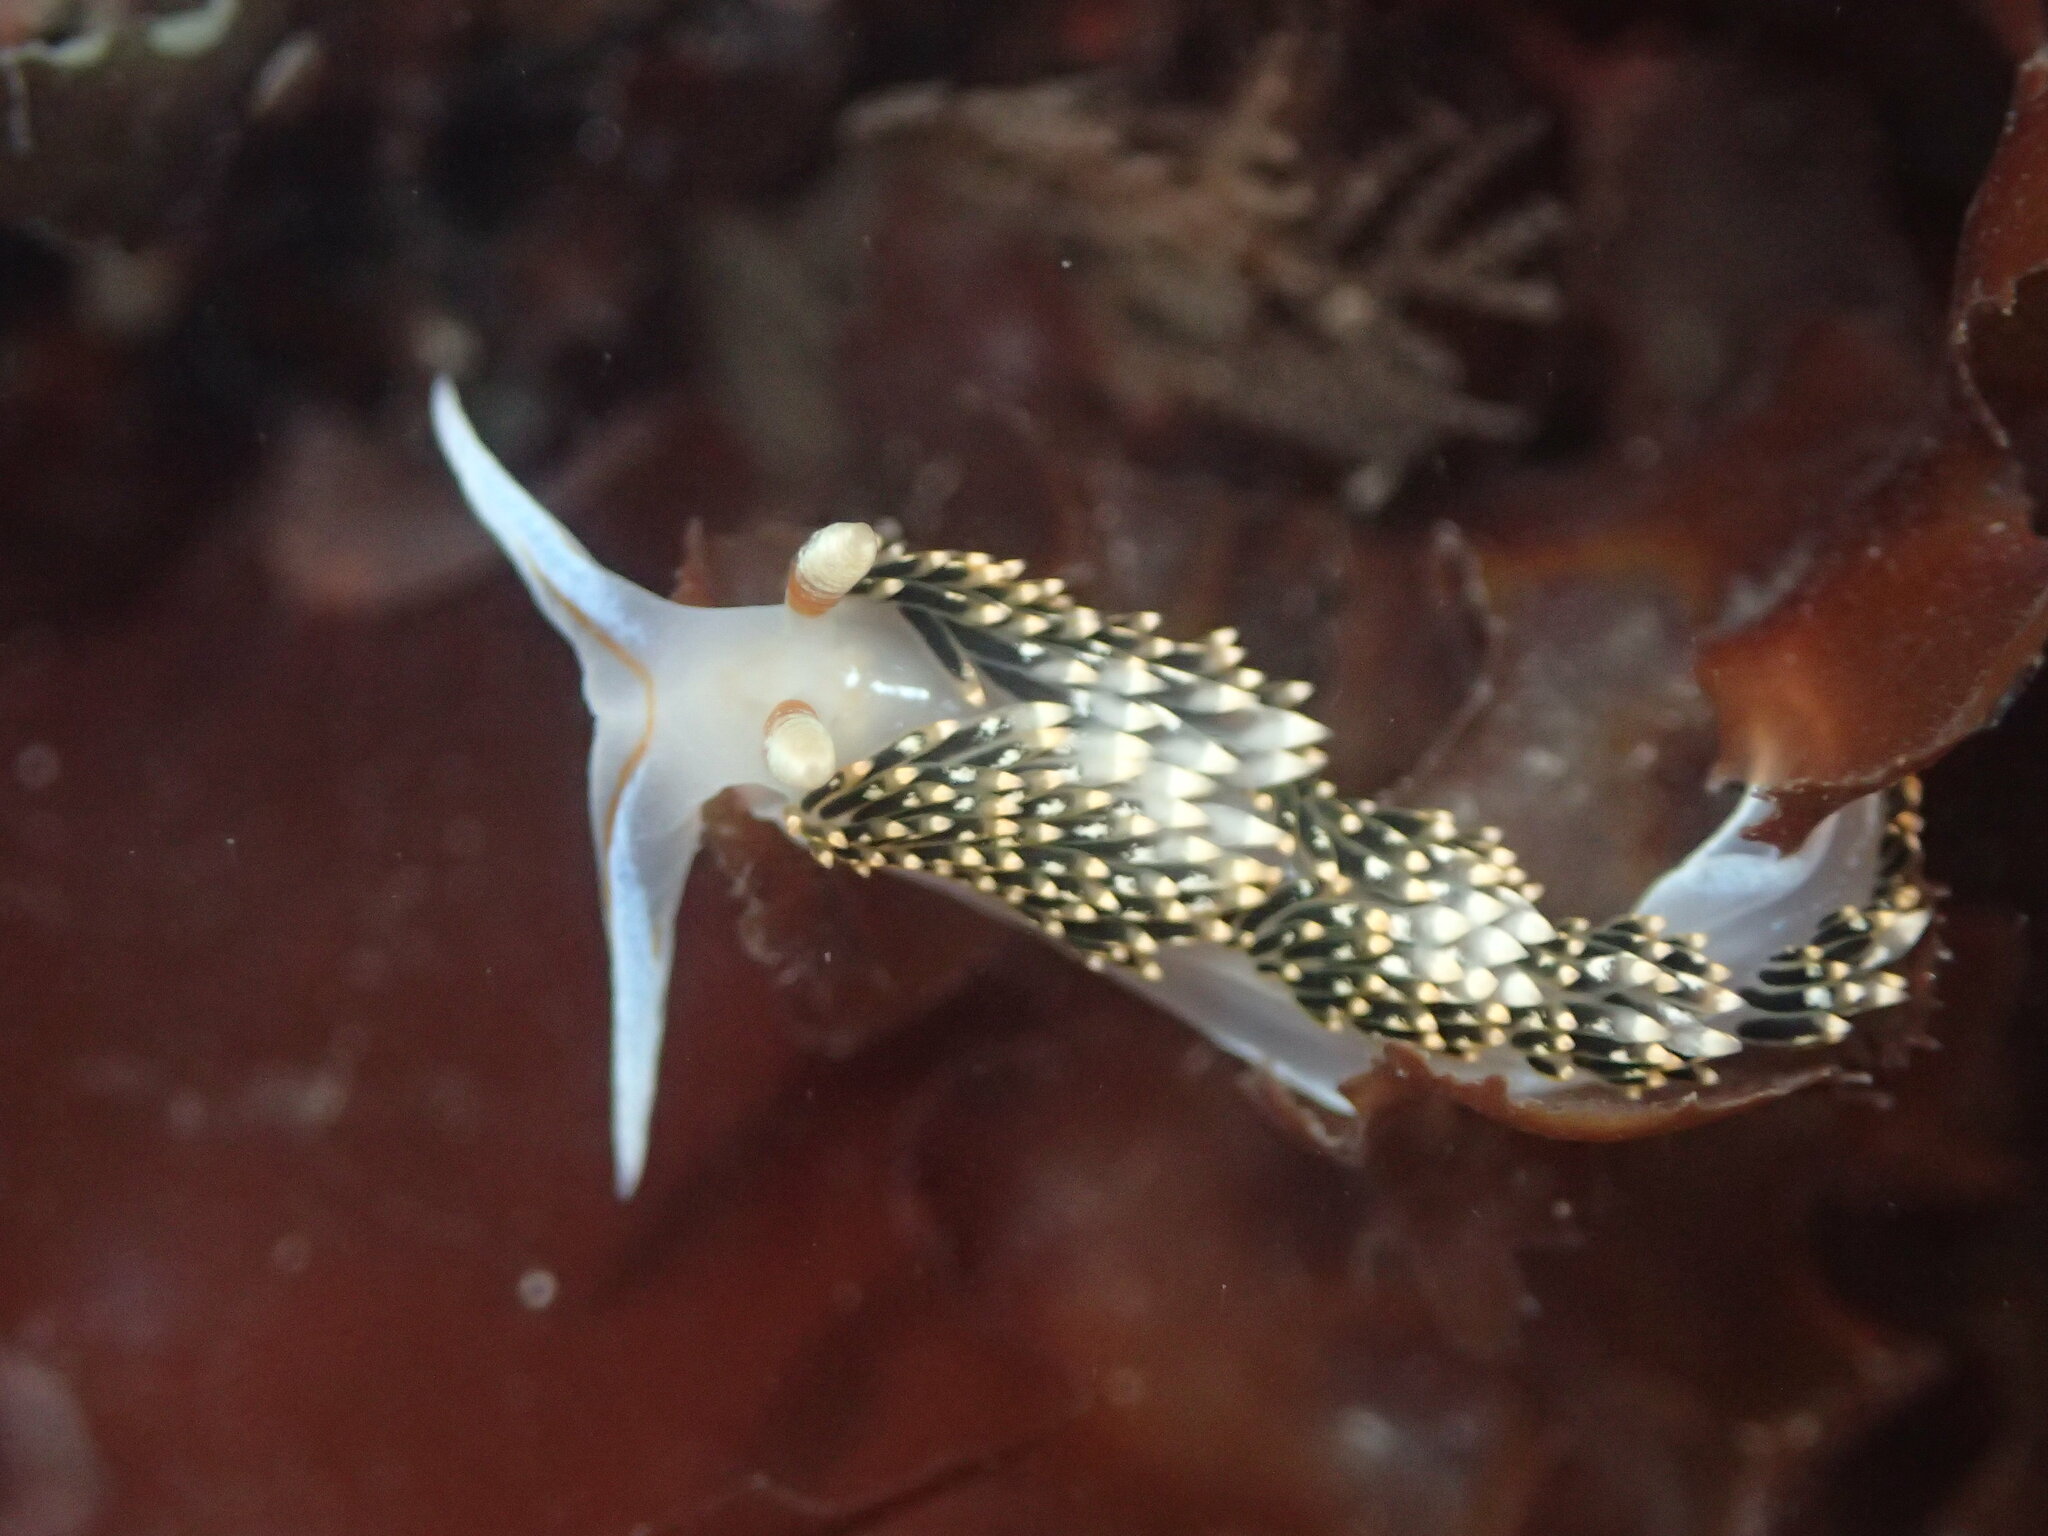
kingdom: Animalia
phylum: Mollusca
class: Gastropoda
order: Nudibranchia
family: Facelinidae
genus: Phidiana
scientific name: Phidiana hiltoni
